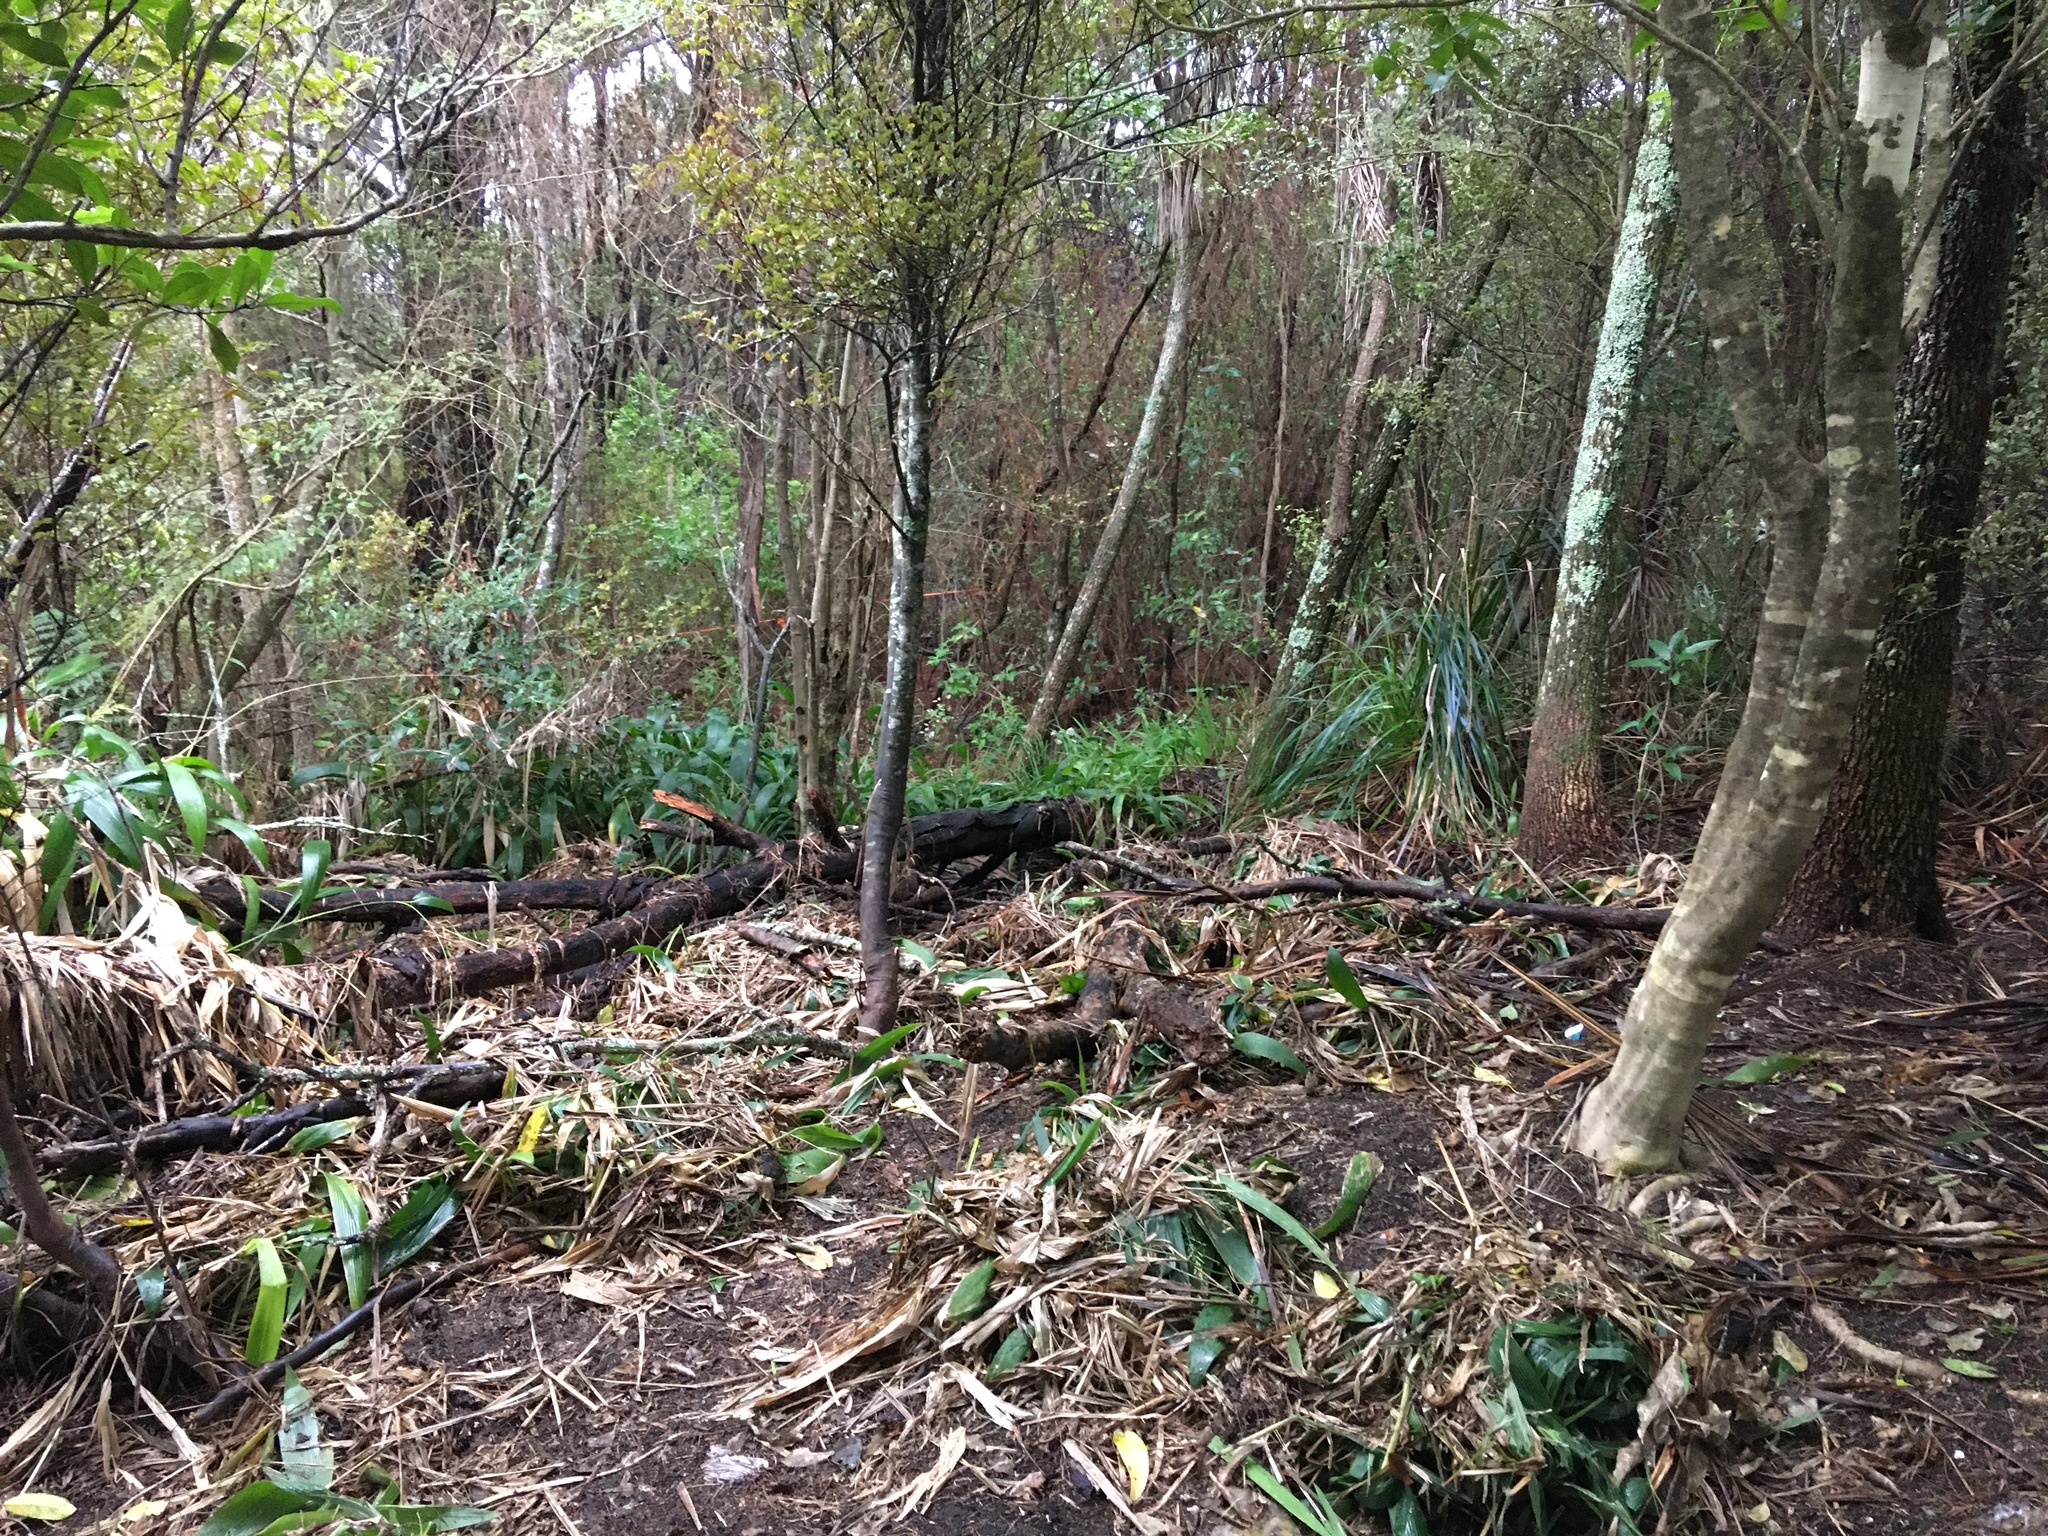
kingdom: Plantae
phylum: Tracheophyta
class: Magnoliopsida
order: Ericales
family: Primulaceae
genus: Myrsine
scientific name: Myrsine australis
